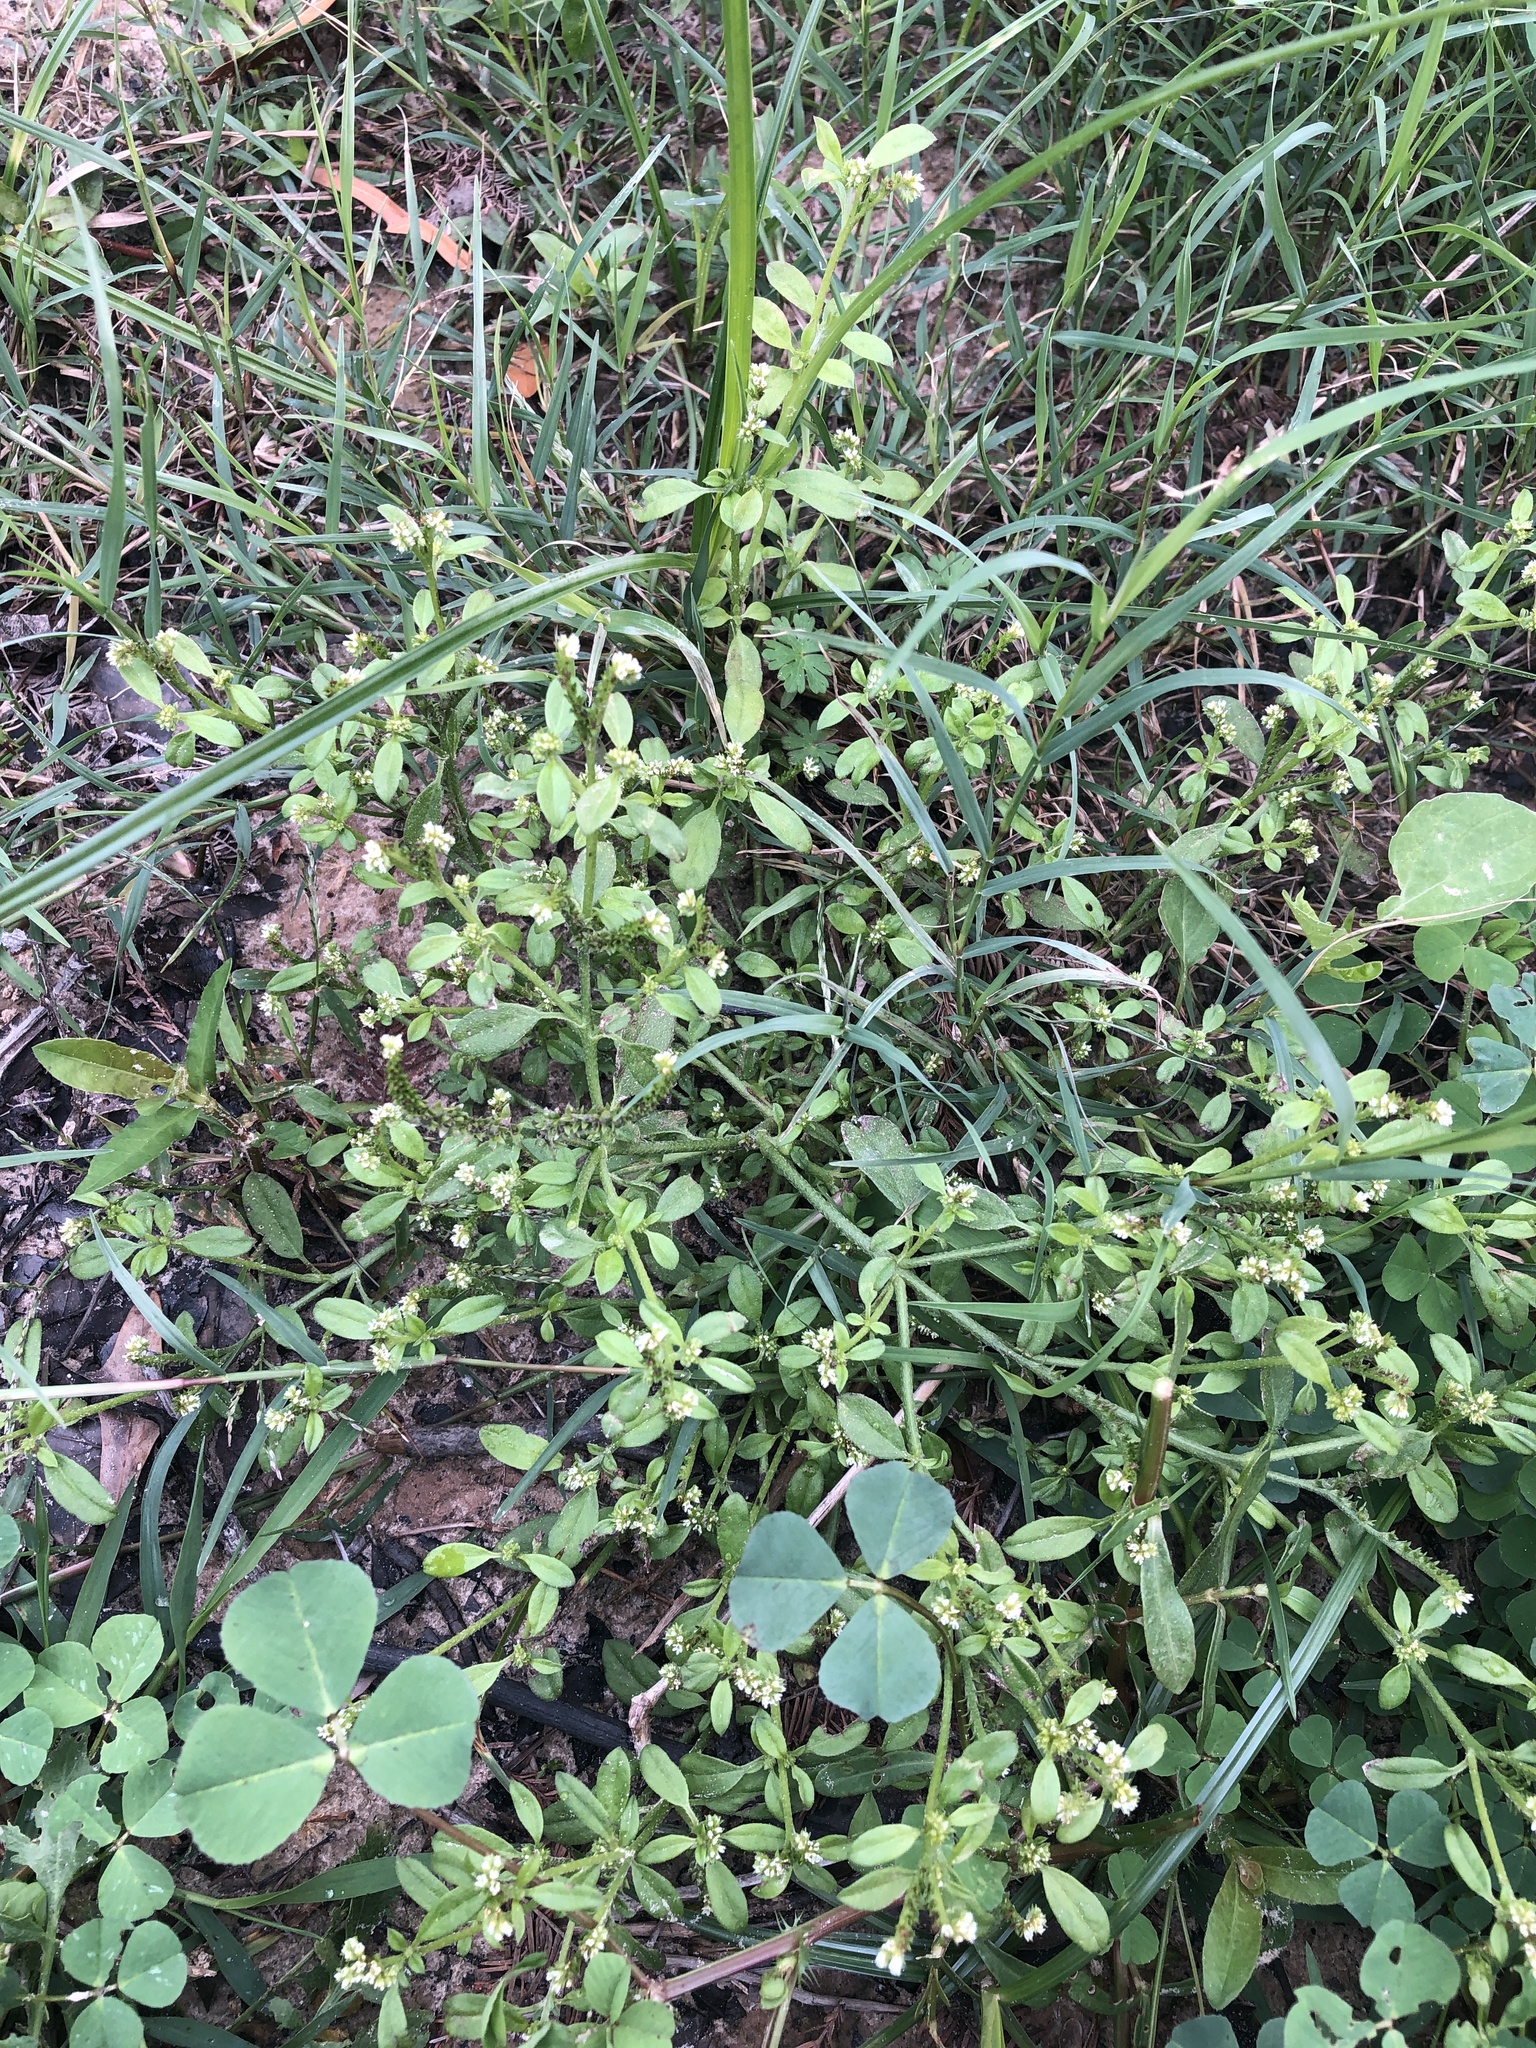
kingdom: Plantae
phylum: Tracheophyta
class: Magnoliopsida
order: Boraginales
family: Heliotropiaceae
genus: Euploca
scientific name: Euploca procumbens
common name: Fourspike heliotrope
